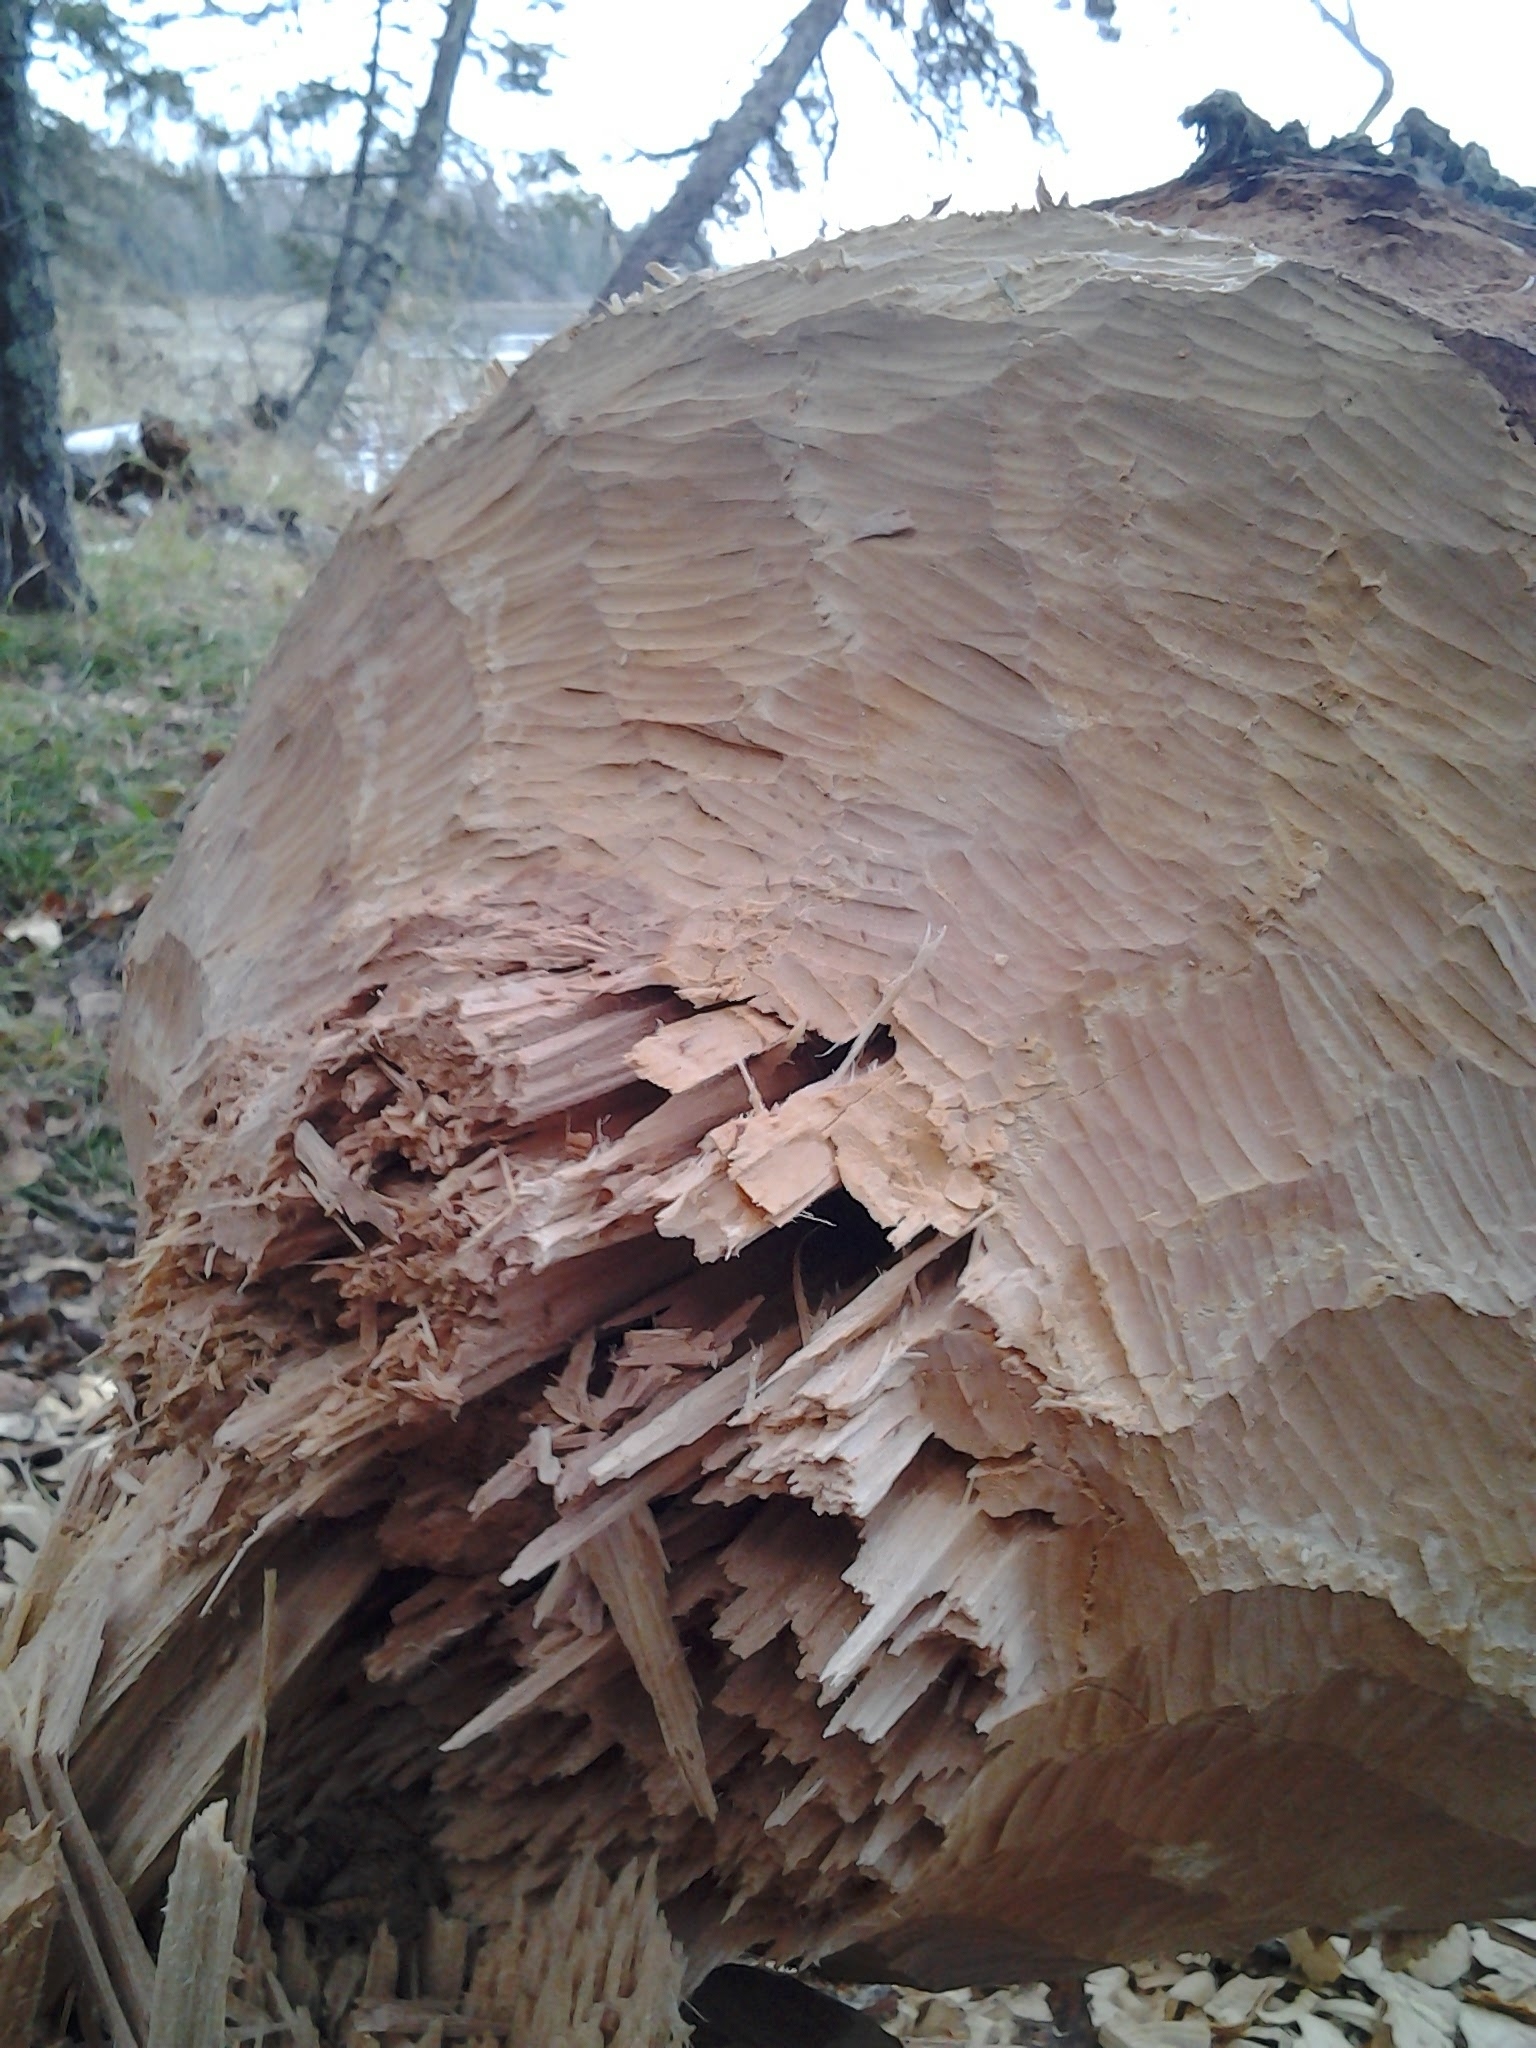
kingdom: Animalia
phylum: Chordata
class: Mammalia
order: Rodentia
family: Castoridae
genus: Castor
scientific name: Castor canadensis
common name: American beaver
